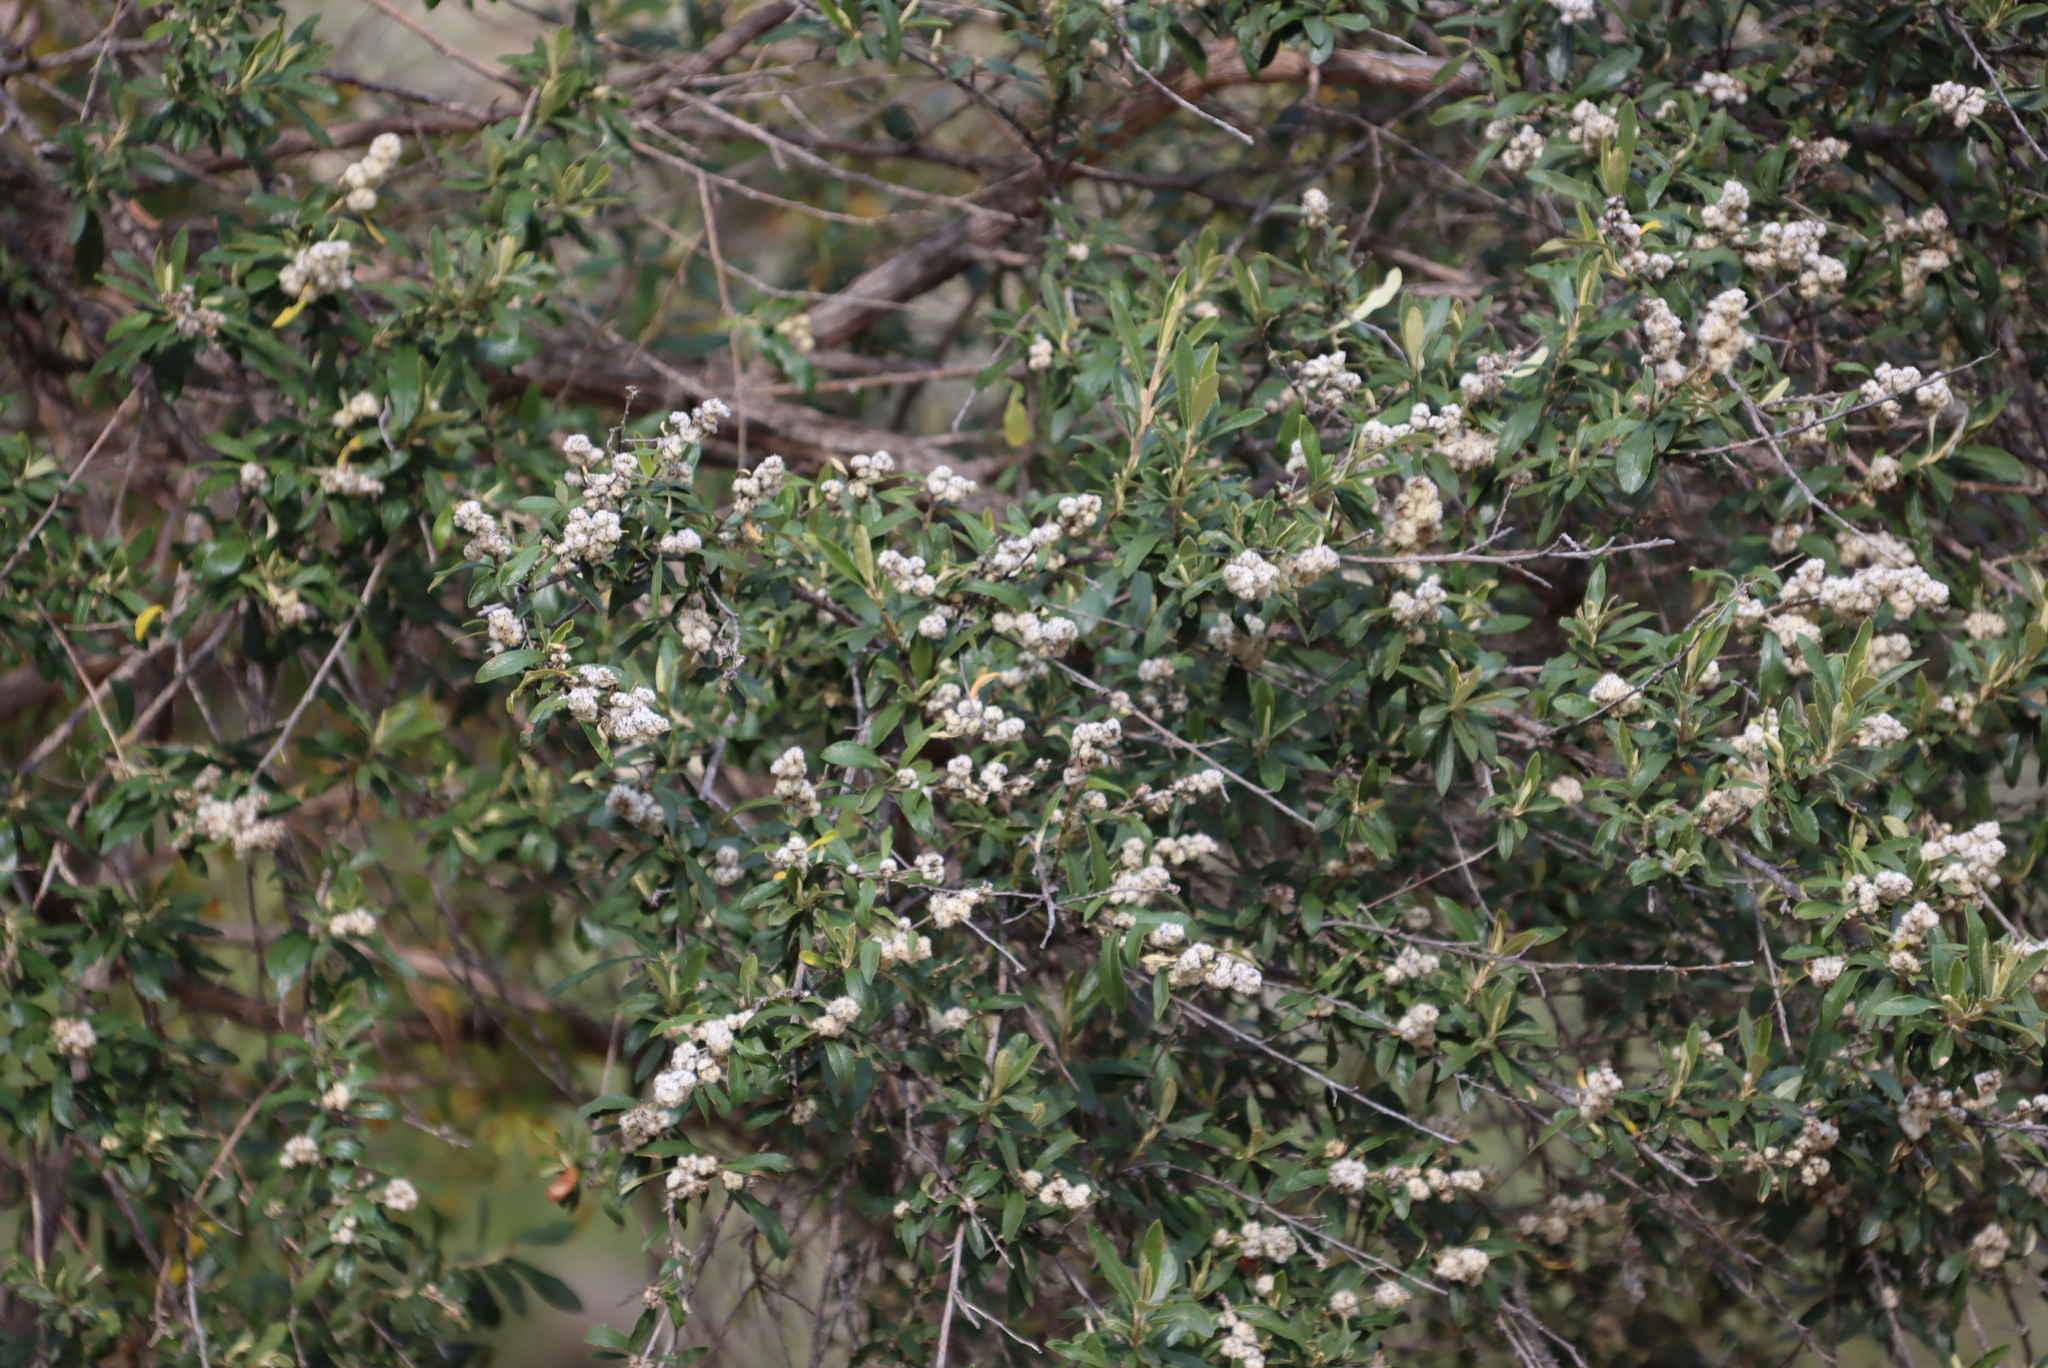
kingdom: Plantae
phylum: Tracheophyta
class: Magnoliopsida
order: Asterales
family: Asteraceae
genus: Tarchonanthus
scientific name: Tarchonanthus littoralis
